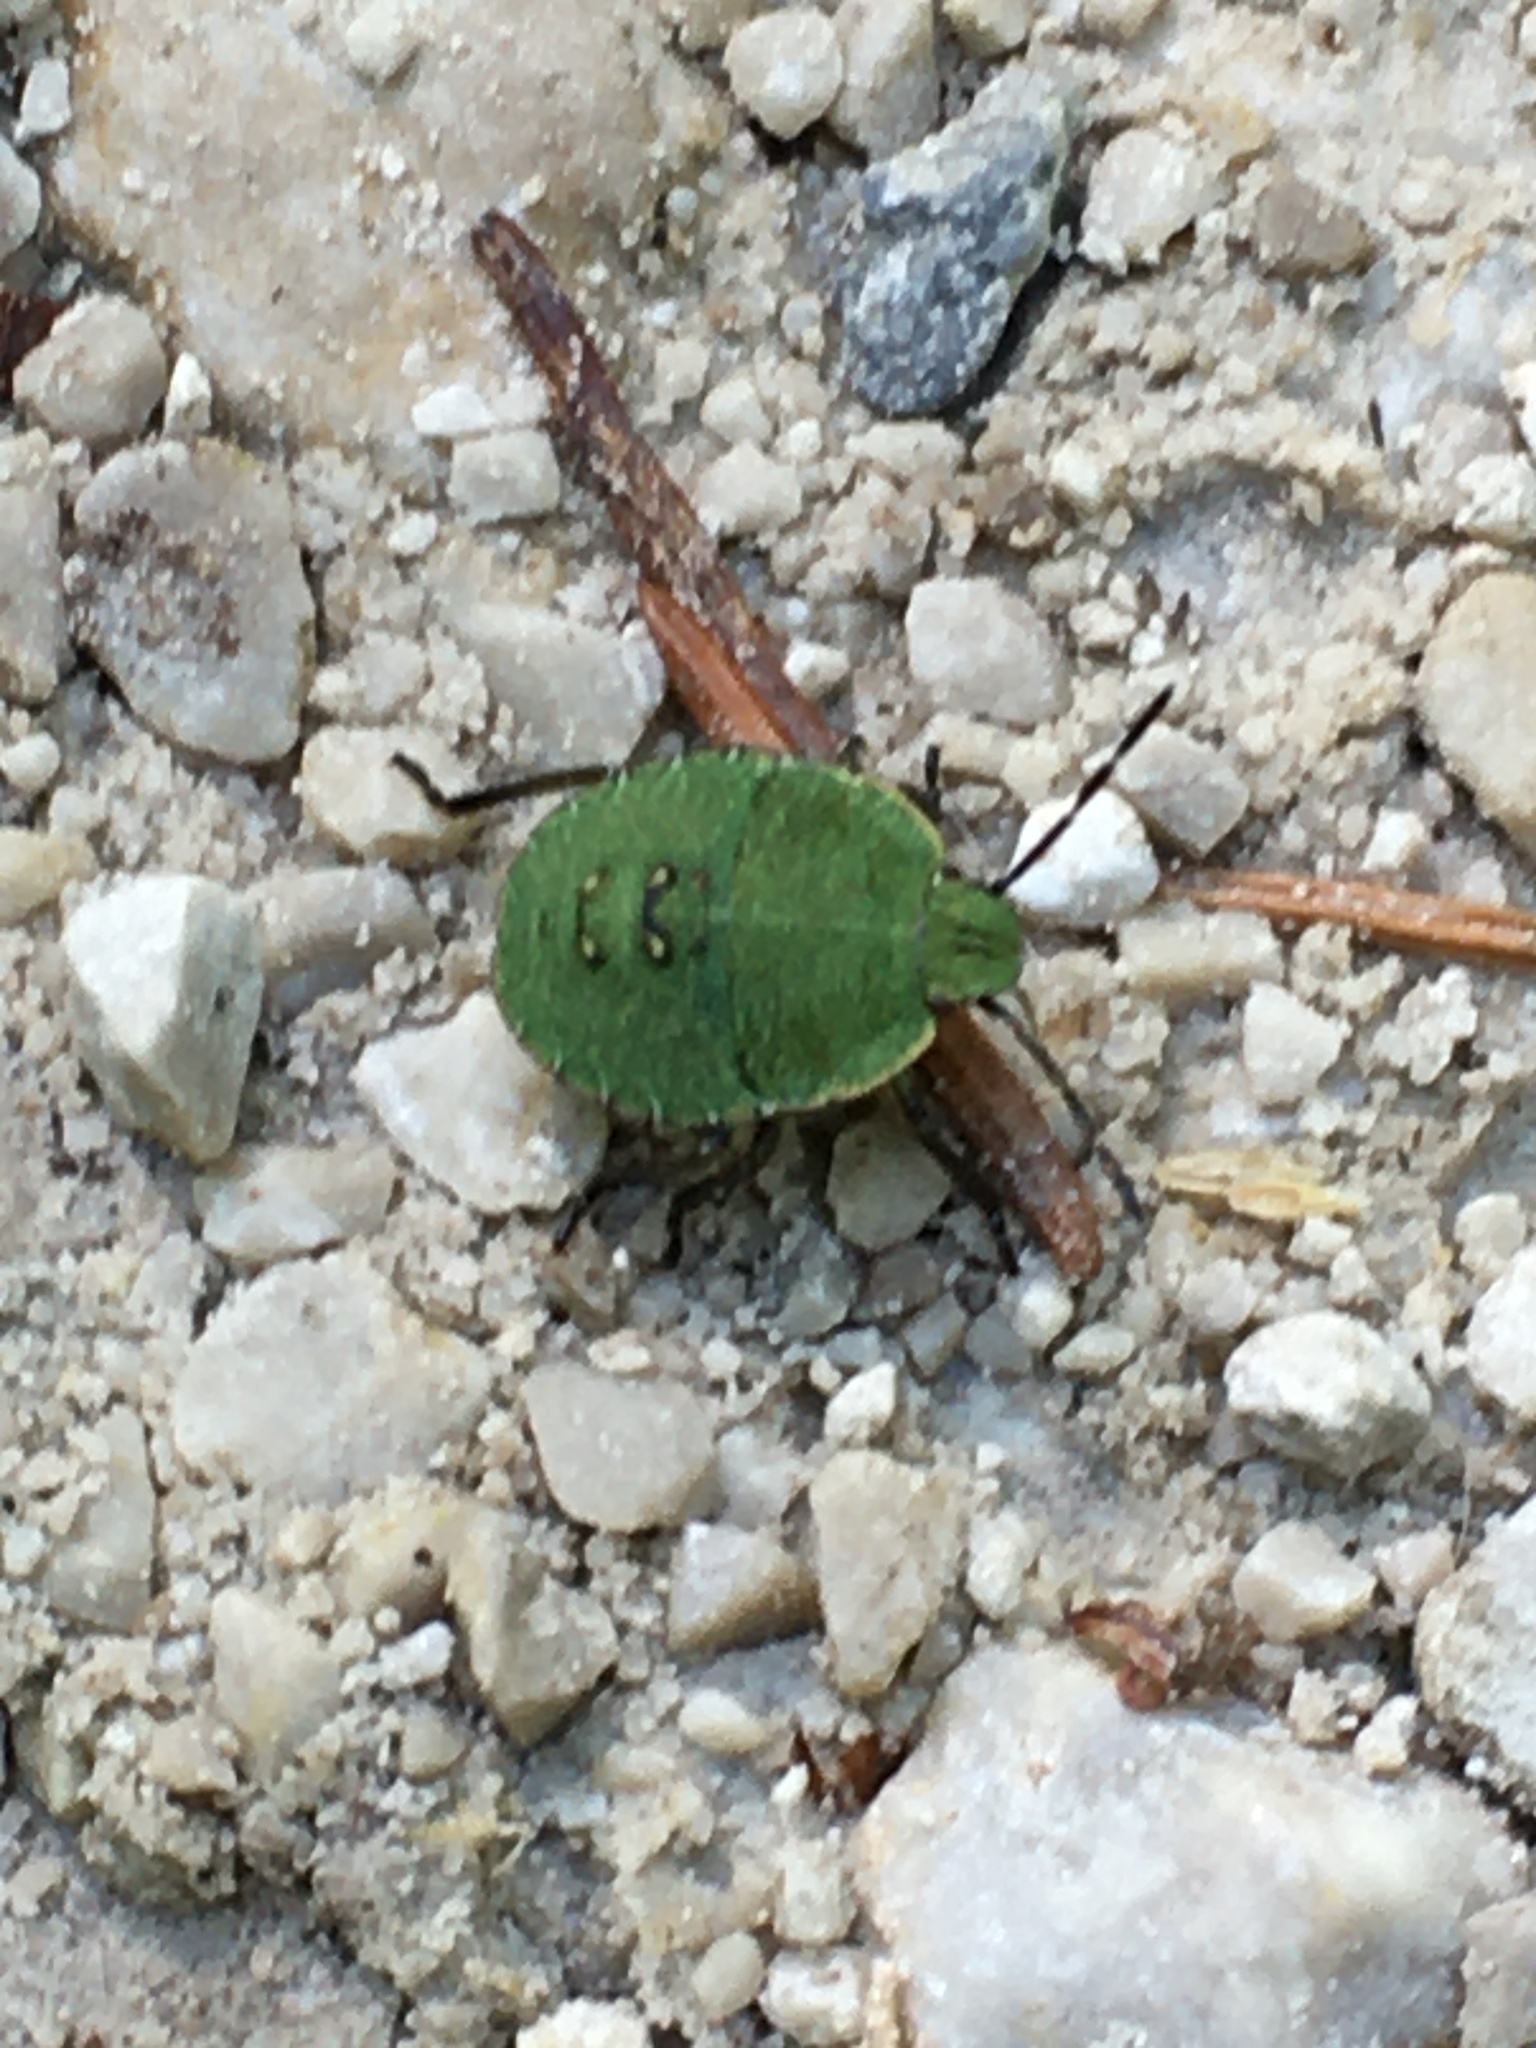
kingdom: Animalia
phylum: Arthropoda
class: Insecta
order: Hemiptera
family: Pentatomidae
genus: Palomena
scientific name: Palomena prasina
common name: Green shieldbug
